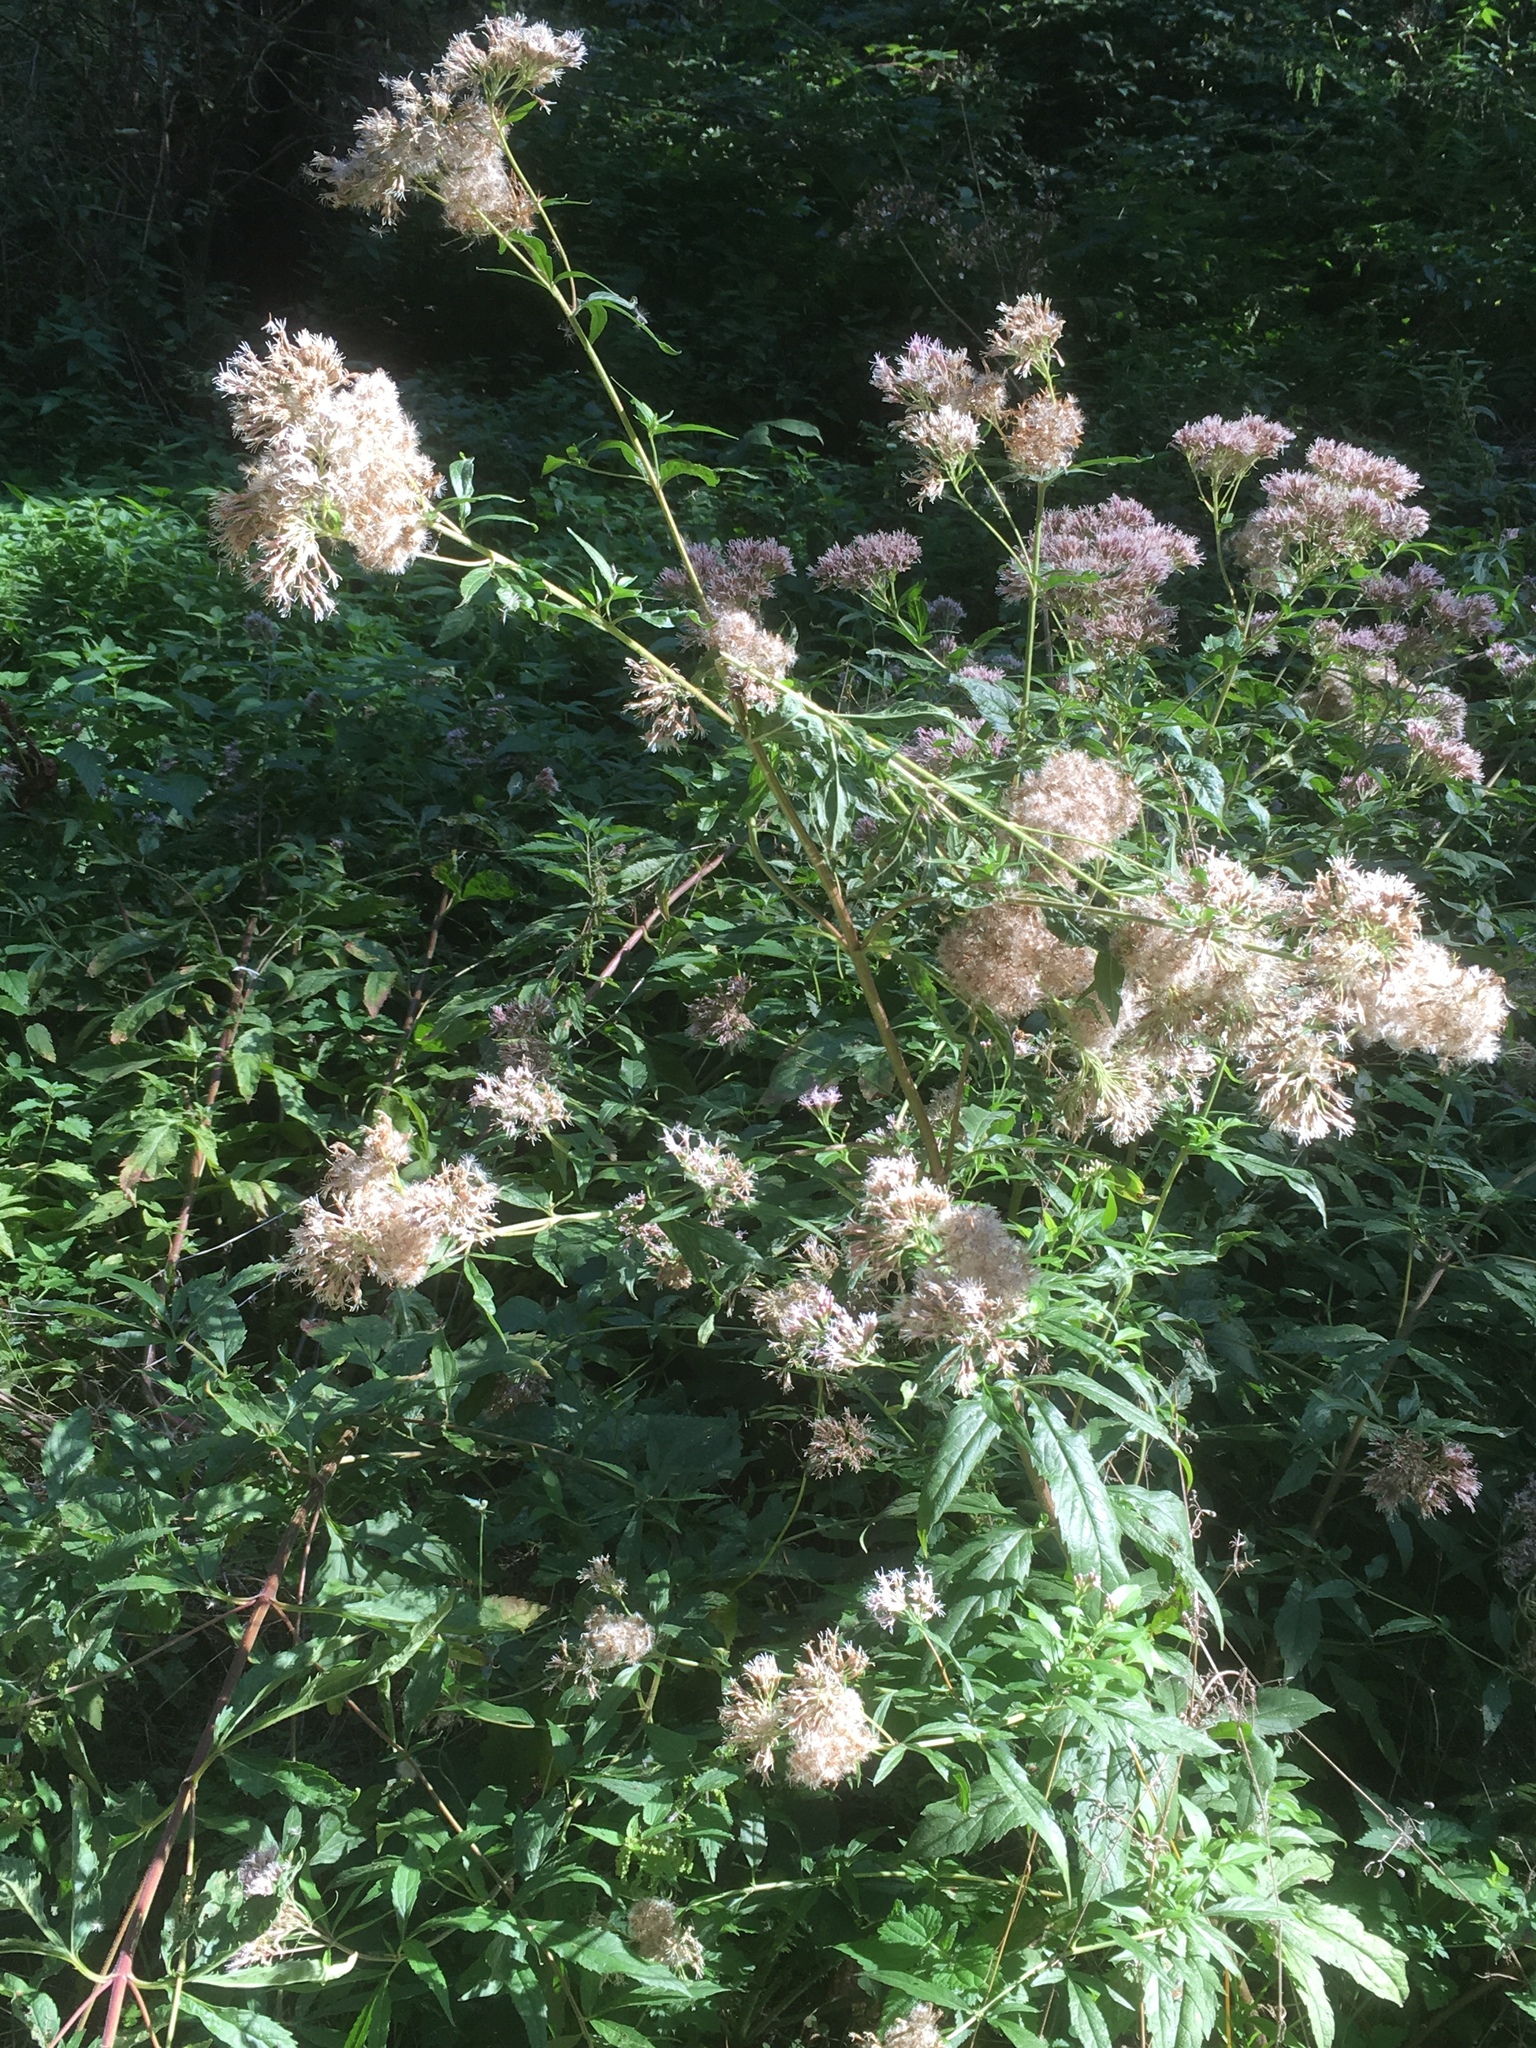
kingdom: Plantae
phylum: Tracheophyta
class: Magnoliopsida
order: Asterales
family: Asteraceae
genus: Eupatorium
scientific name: Eupatorium cannabinum
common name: Hemp-agrimony
